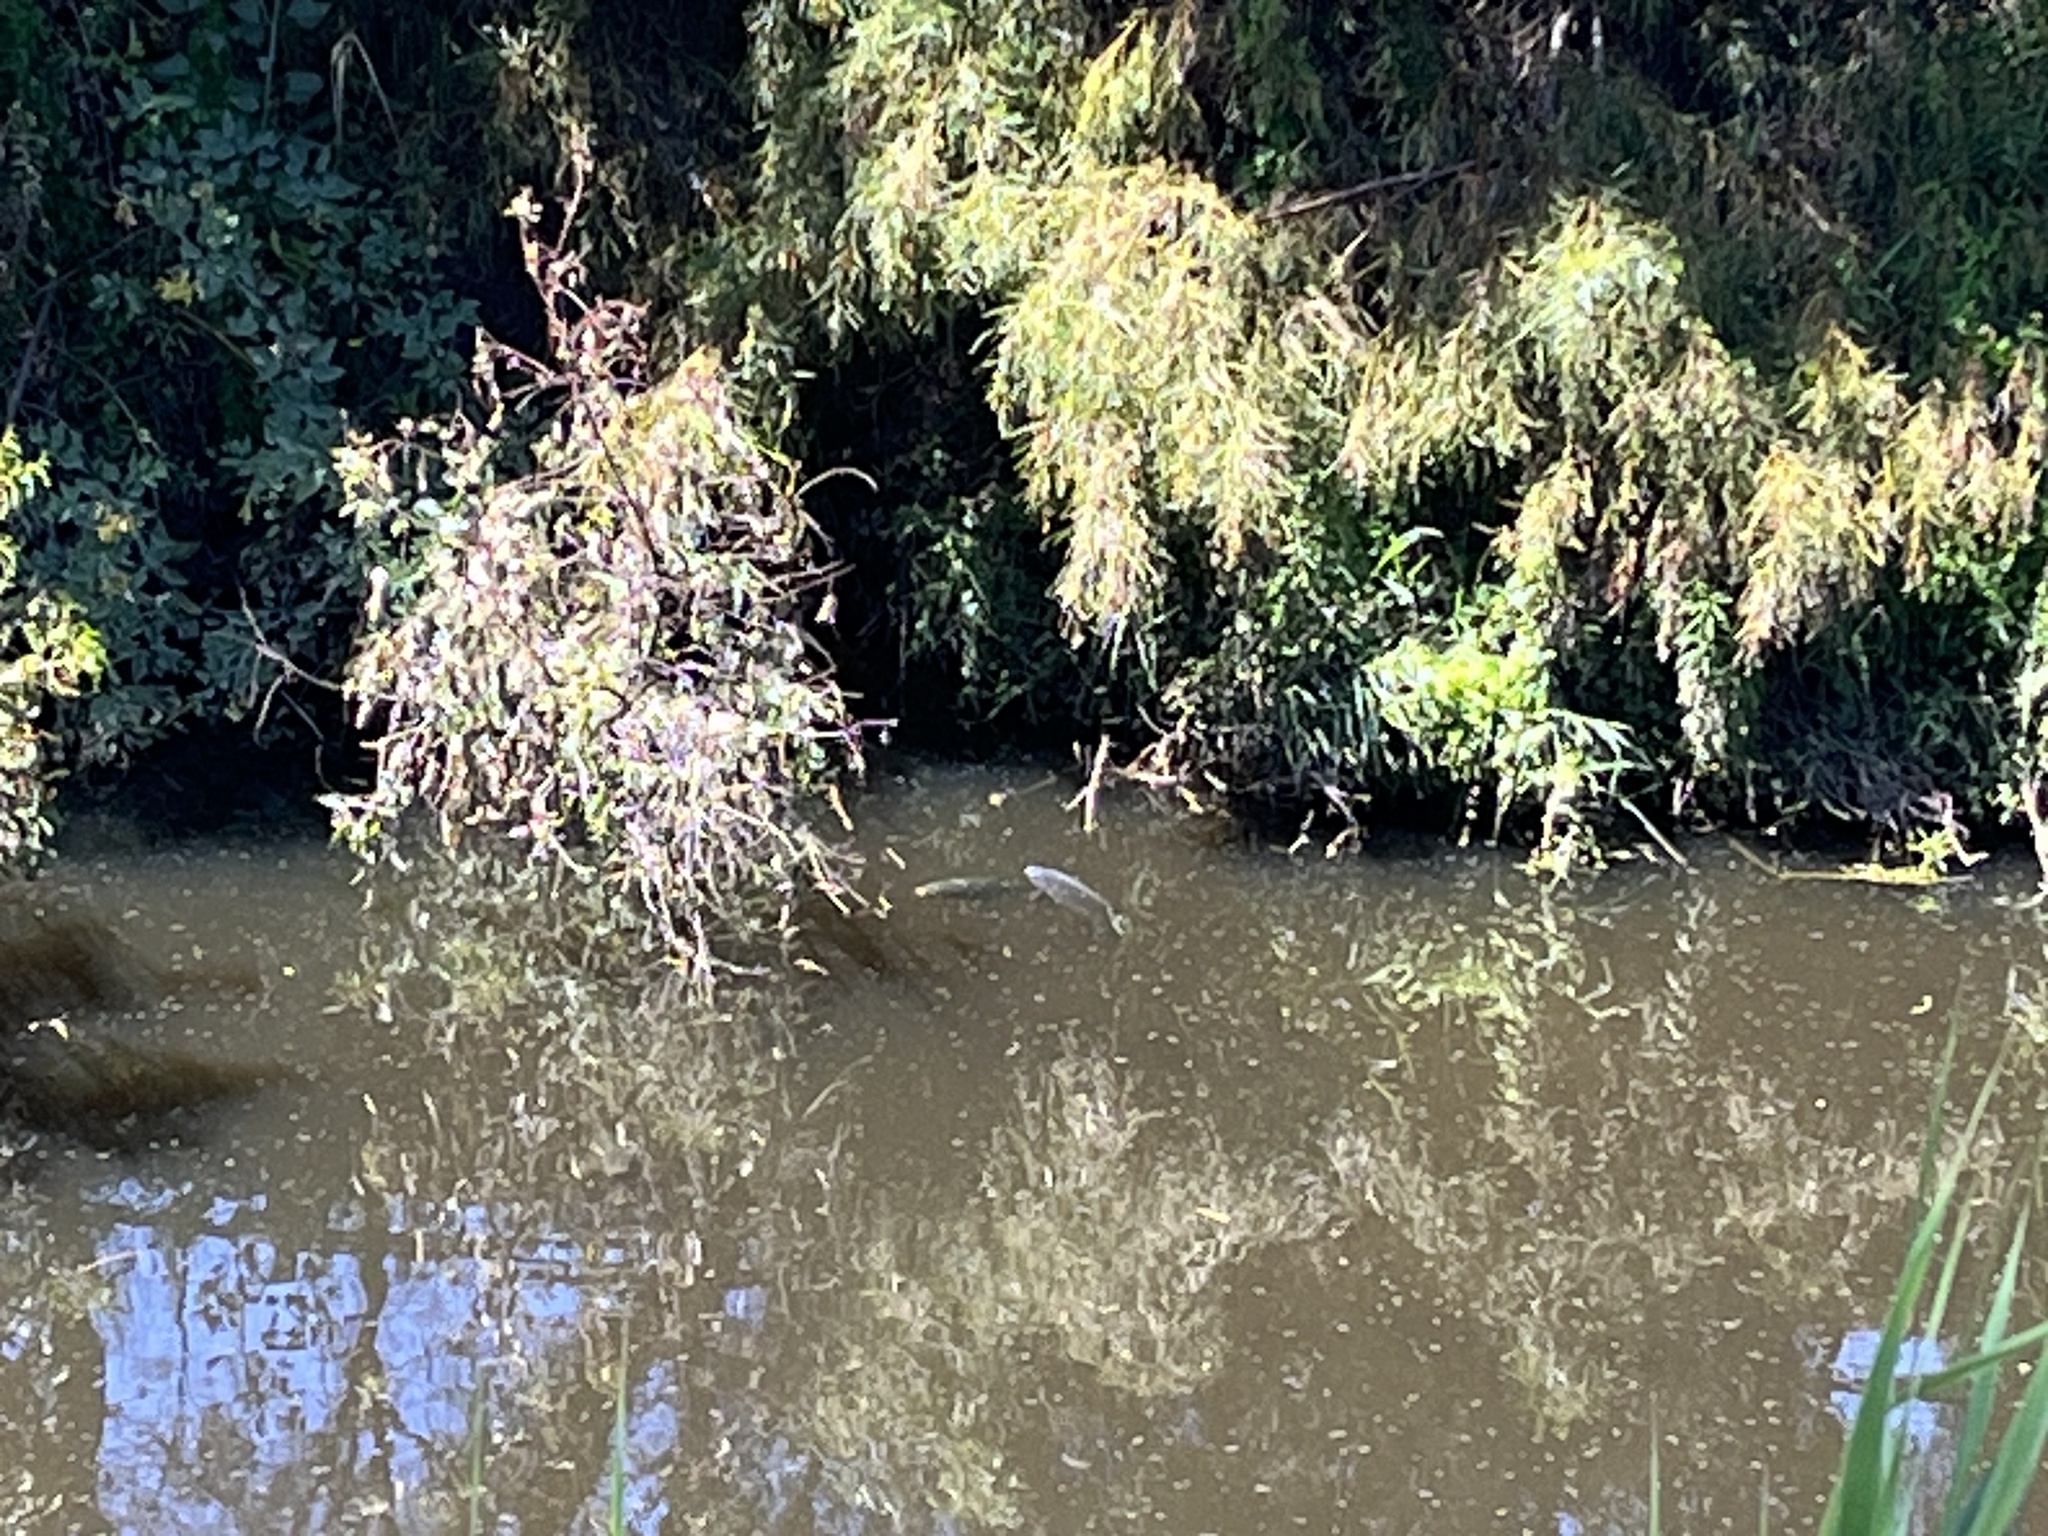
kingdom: Animalia
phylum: Chordata
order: Cypriniformes
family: Cyprinidae
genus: Cyprinus
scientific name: Cyprinus carpio
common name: Common carp
